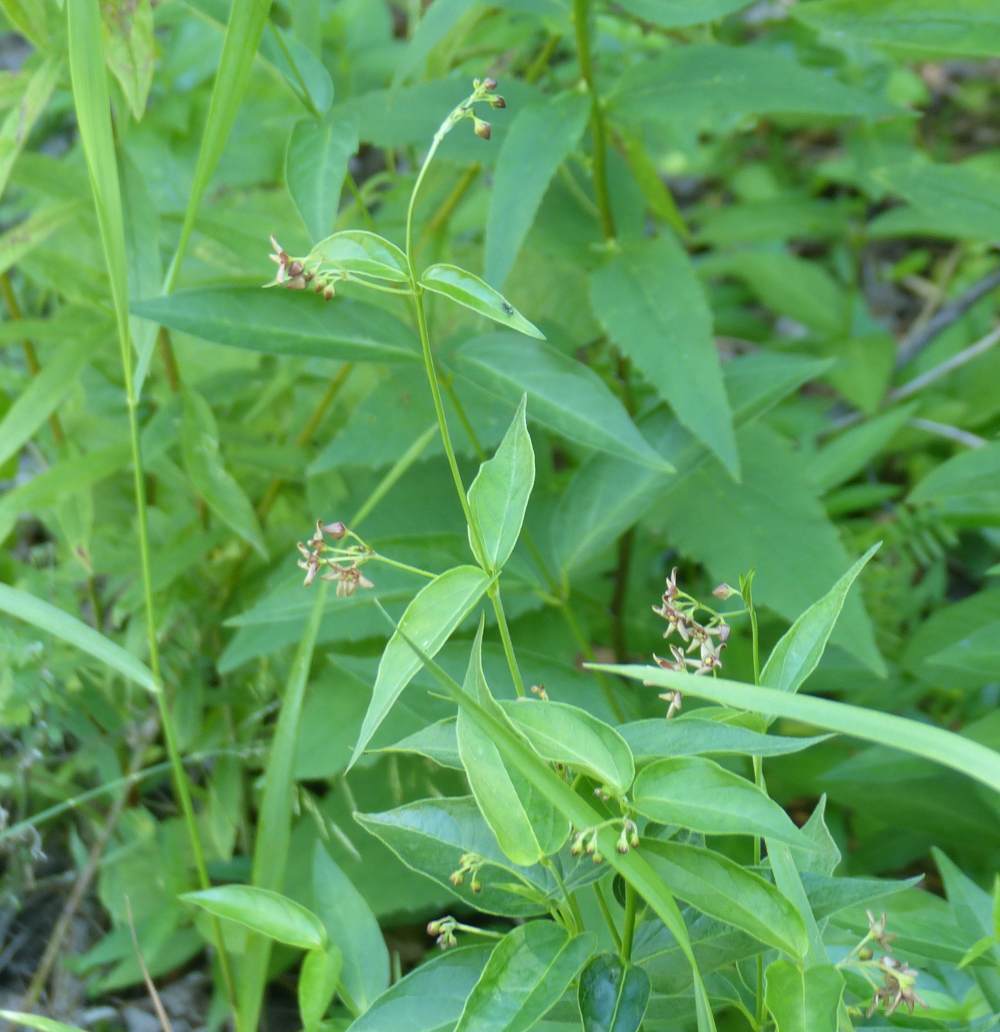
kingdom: Plantae
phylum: Tracheophyta
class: Magnoliopsida
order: Gentianales
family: Apocynaceae
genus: Vincetoxicum
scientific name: Vincetoxicum rossicum
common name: Dog-strangling vine
